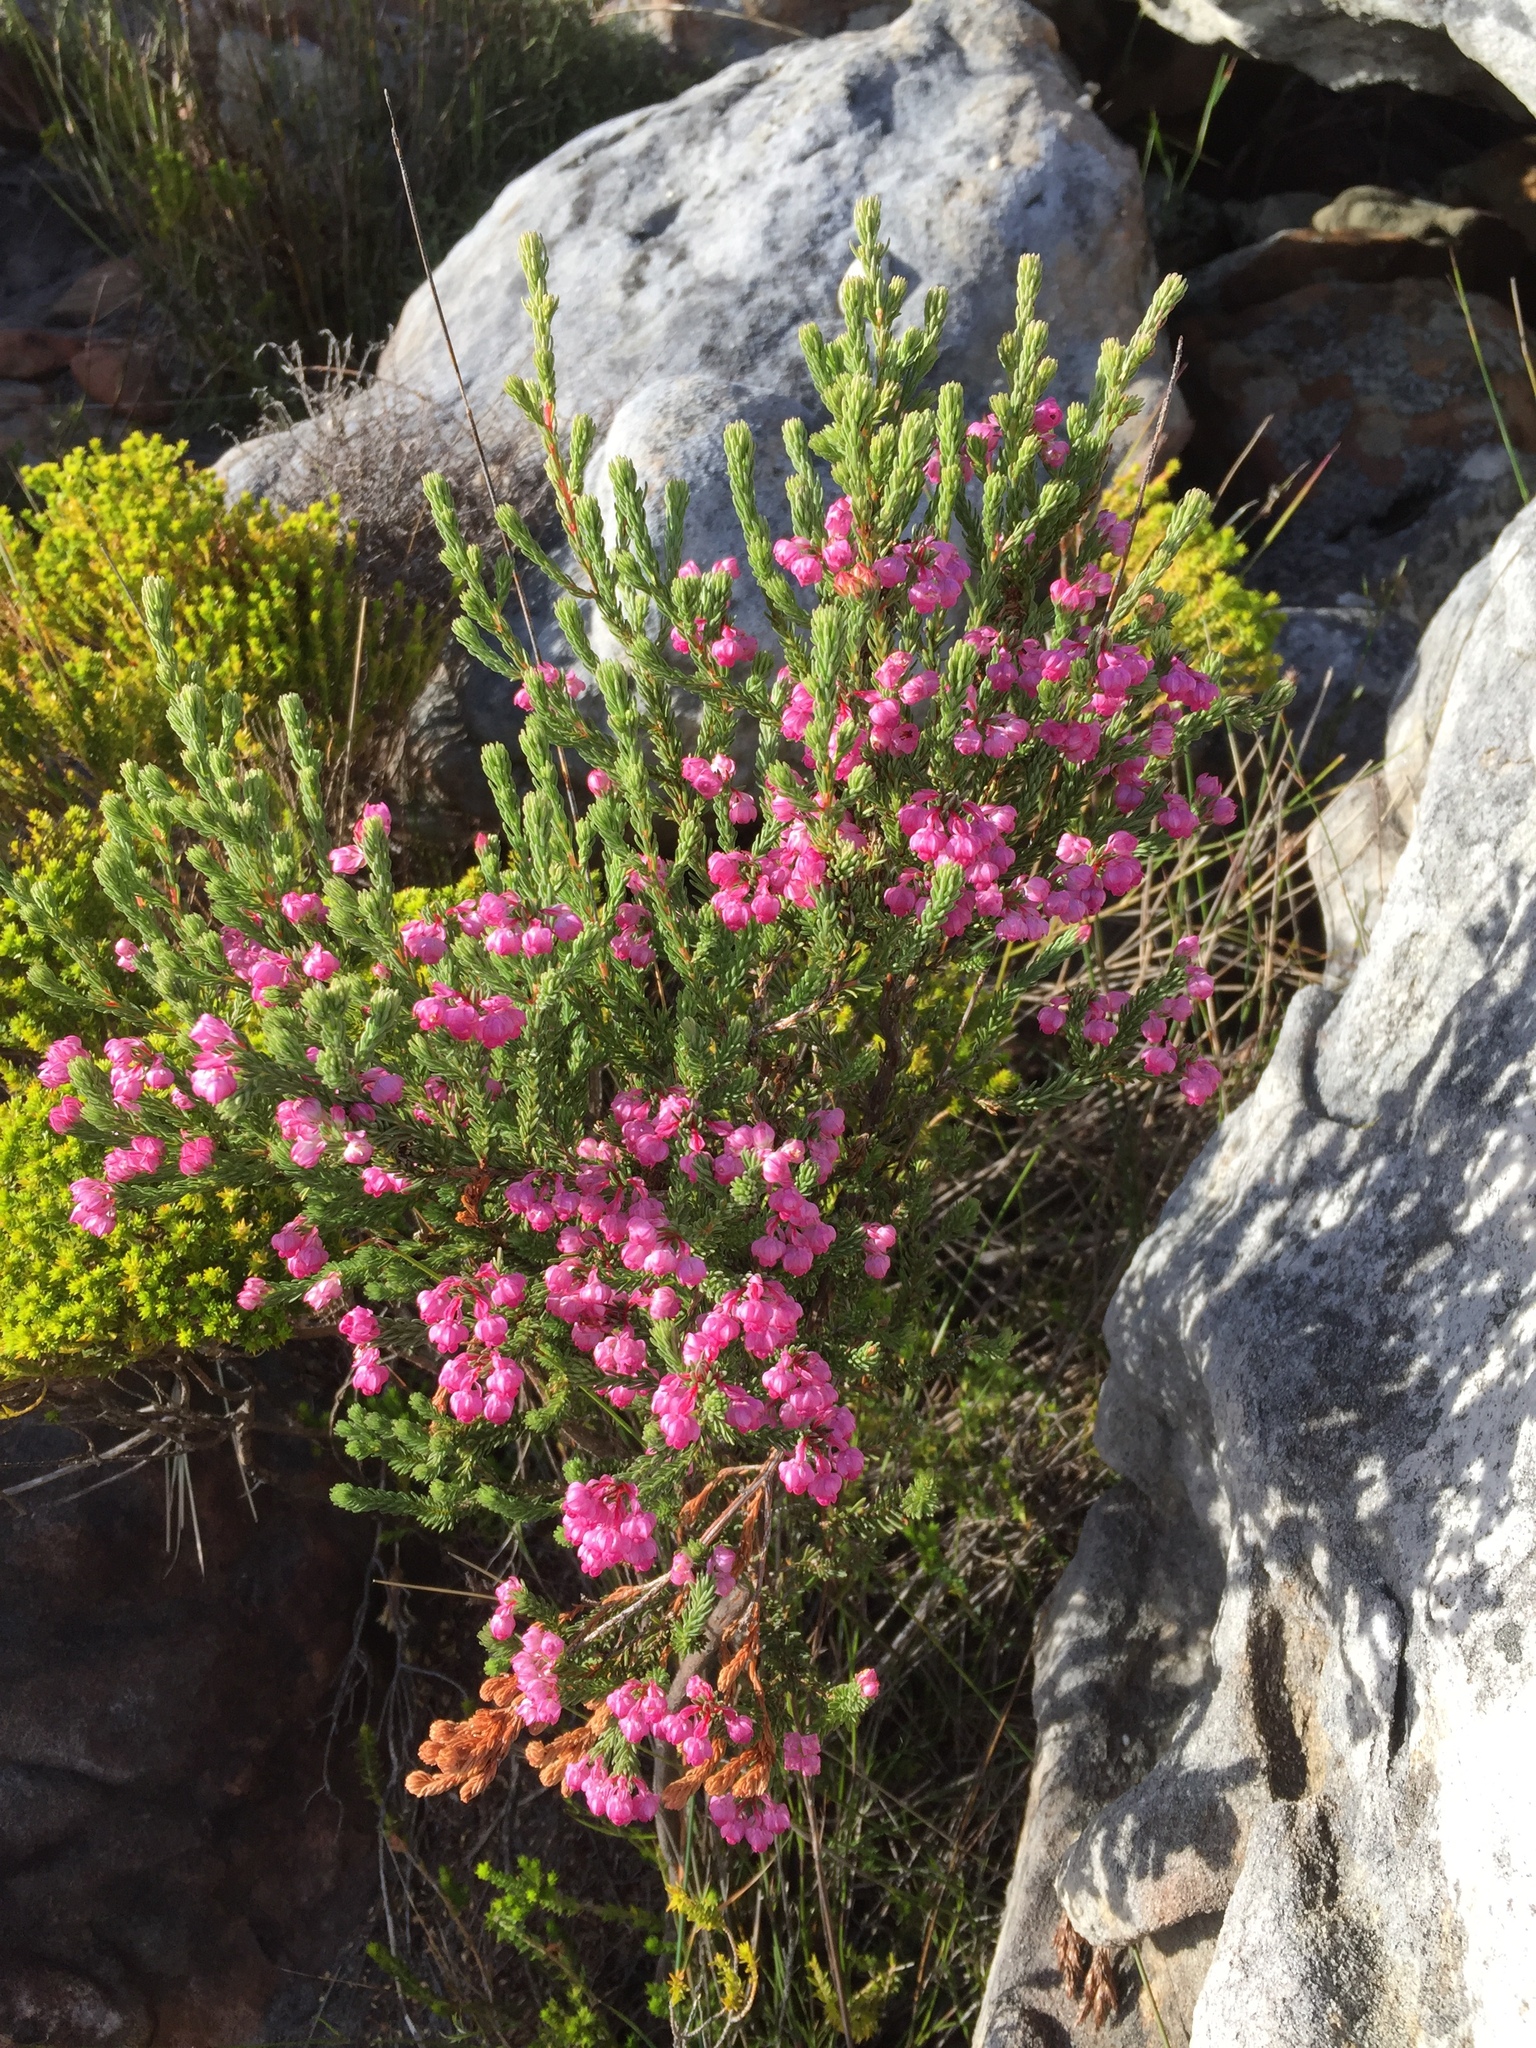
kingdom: Plantae
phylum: Tracheophyta
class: Magnoliopsida
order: Ericales
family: Ericaceae
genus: Erica
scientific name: Erica baccans
